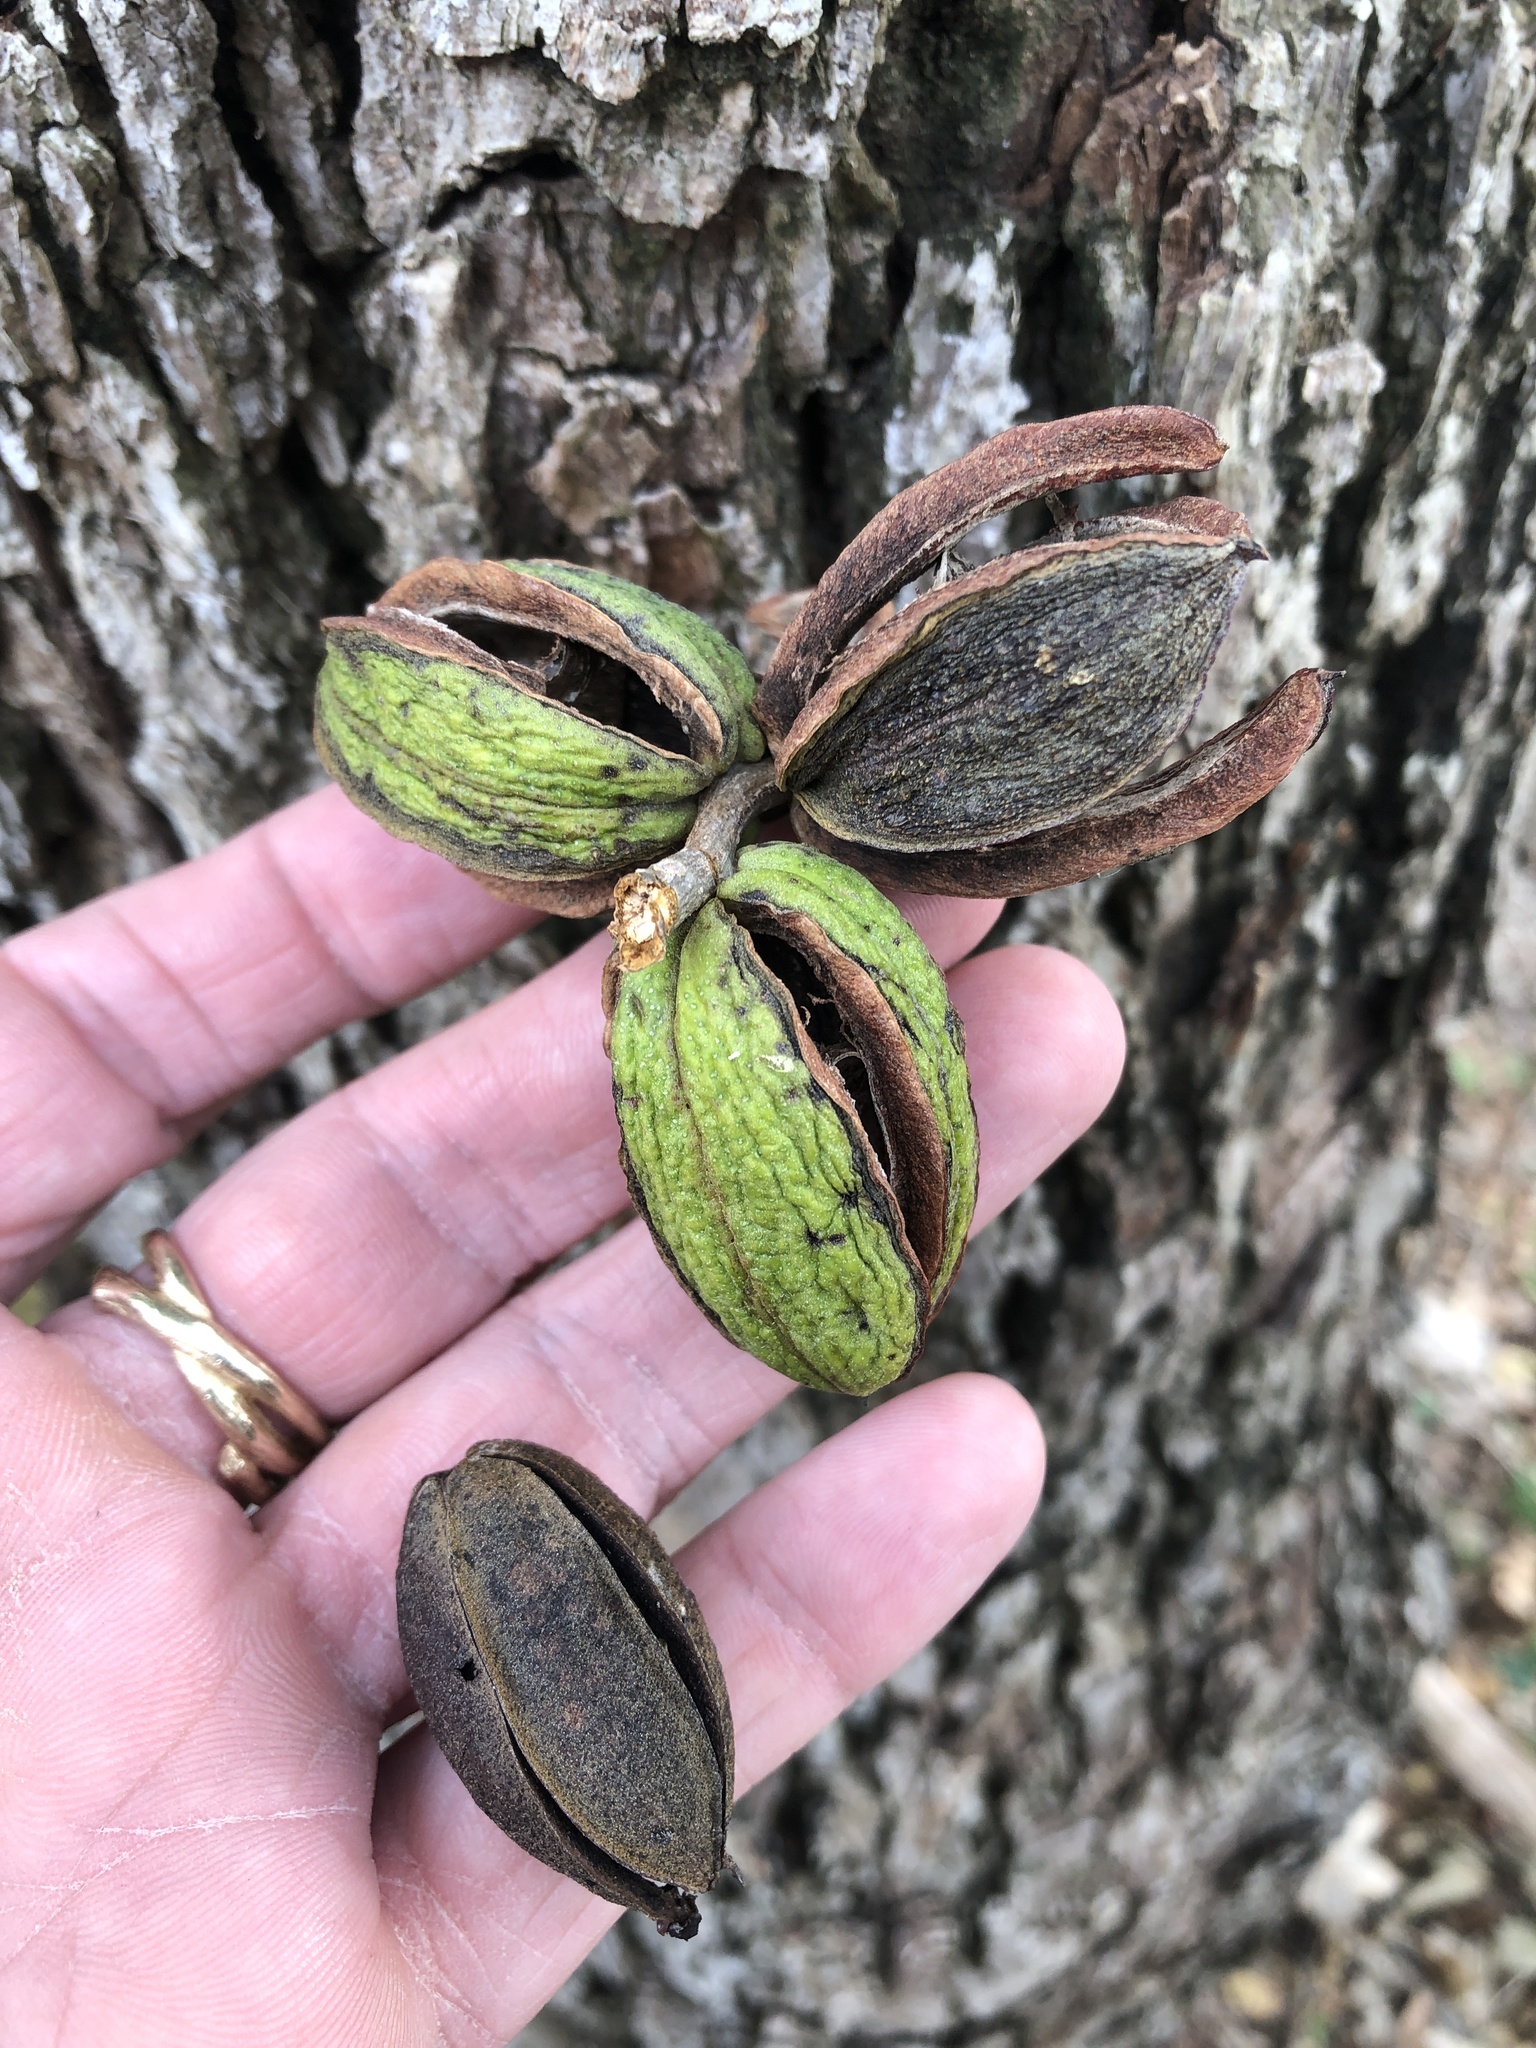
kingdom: Plantae
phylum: Tracheophyta
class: Magnoliopsida
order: Fagales
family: Juglandaceae
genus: Carya
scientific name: Carya illinoinensis
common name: Pecan
